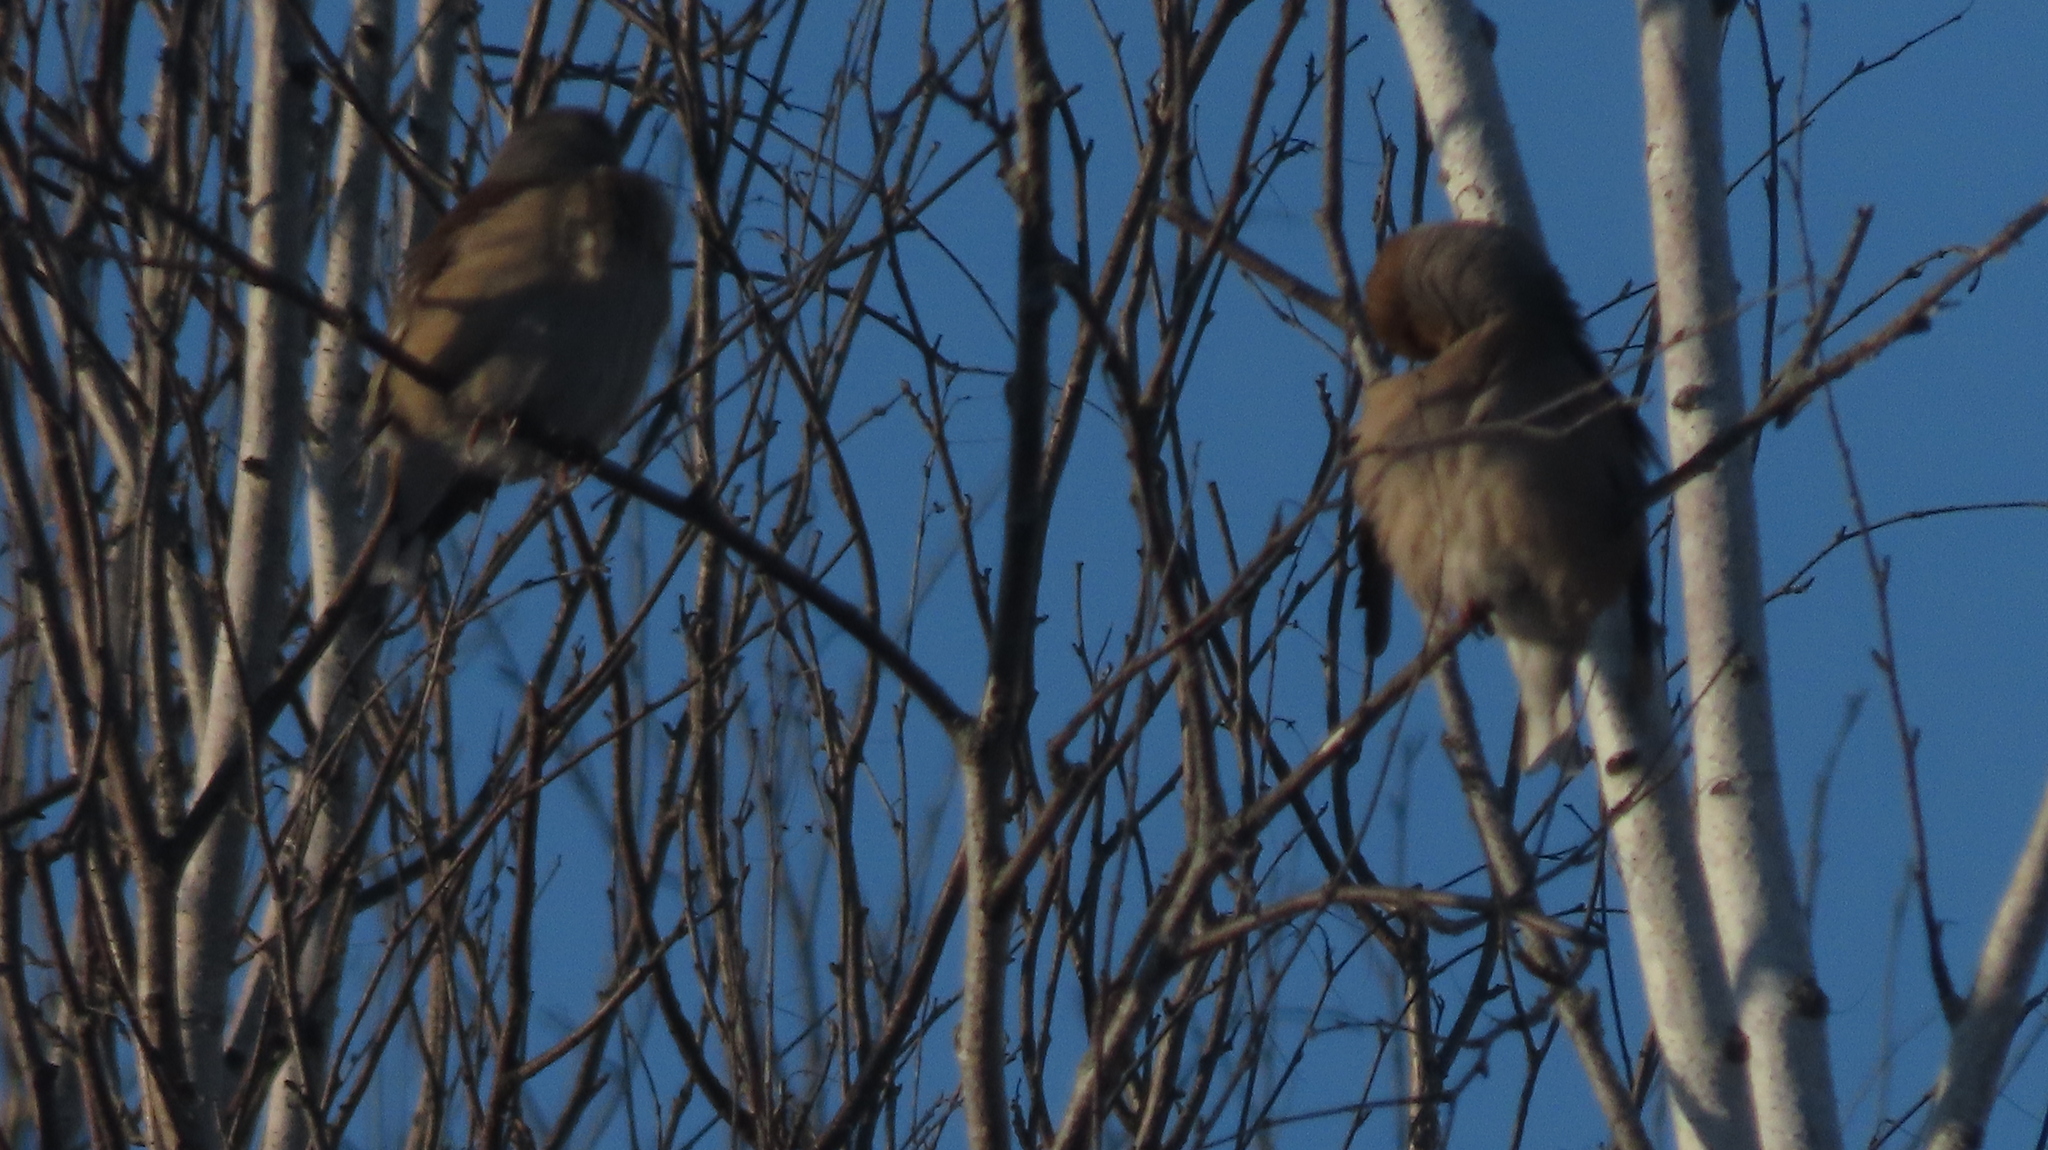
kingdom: Animalia
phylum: Chordata
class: Aves
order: Passeriformes
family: Fringillidae
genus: Coccothraustes
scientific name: Coccothraustes coccothraustes
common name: Hawfinch
